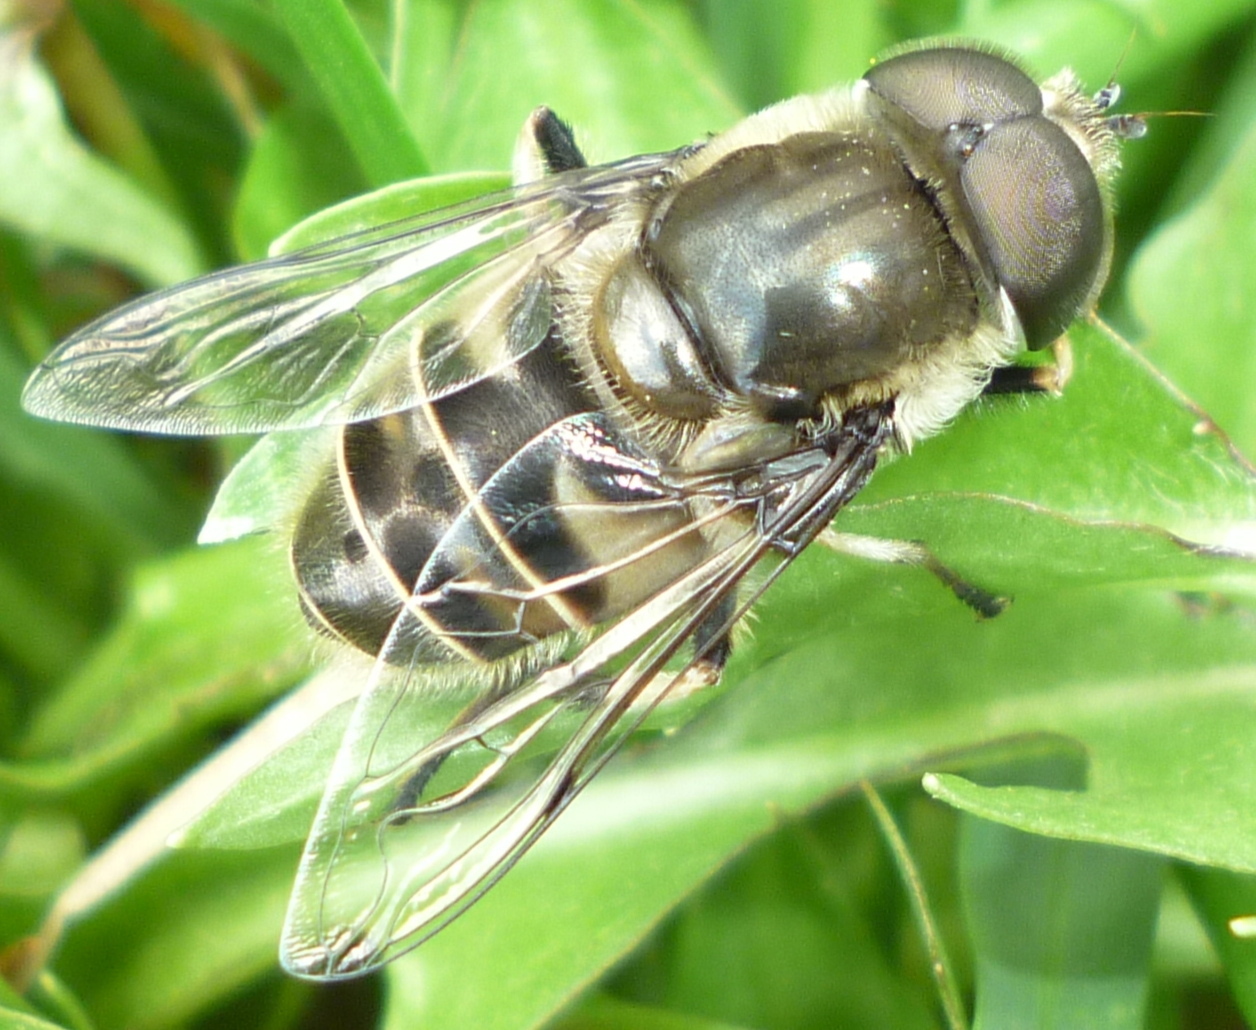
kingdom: Animalia
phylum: Arthropoda
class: Insecta
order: Diptera
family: Syrphidae
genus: Eristalis
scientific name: Eristalis dimidiata
